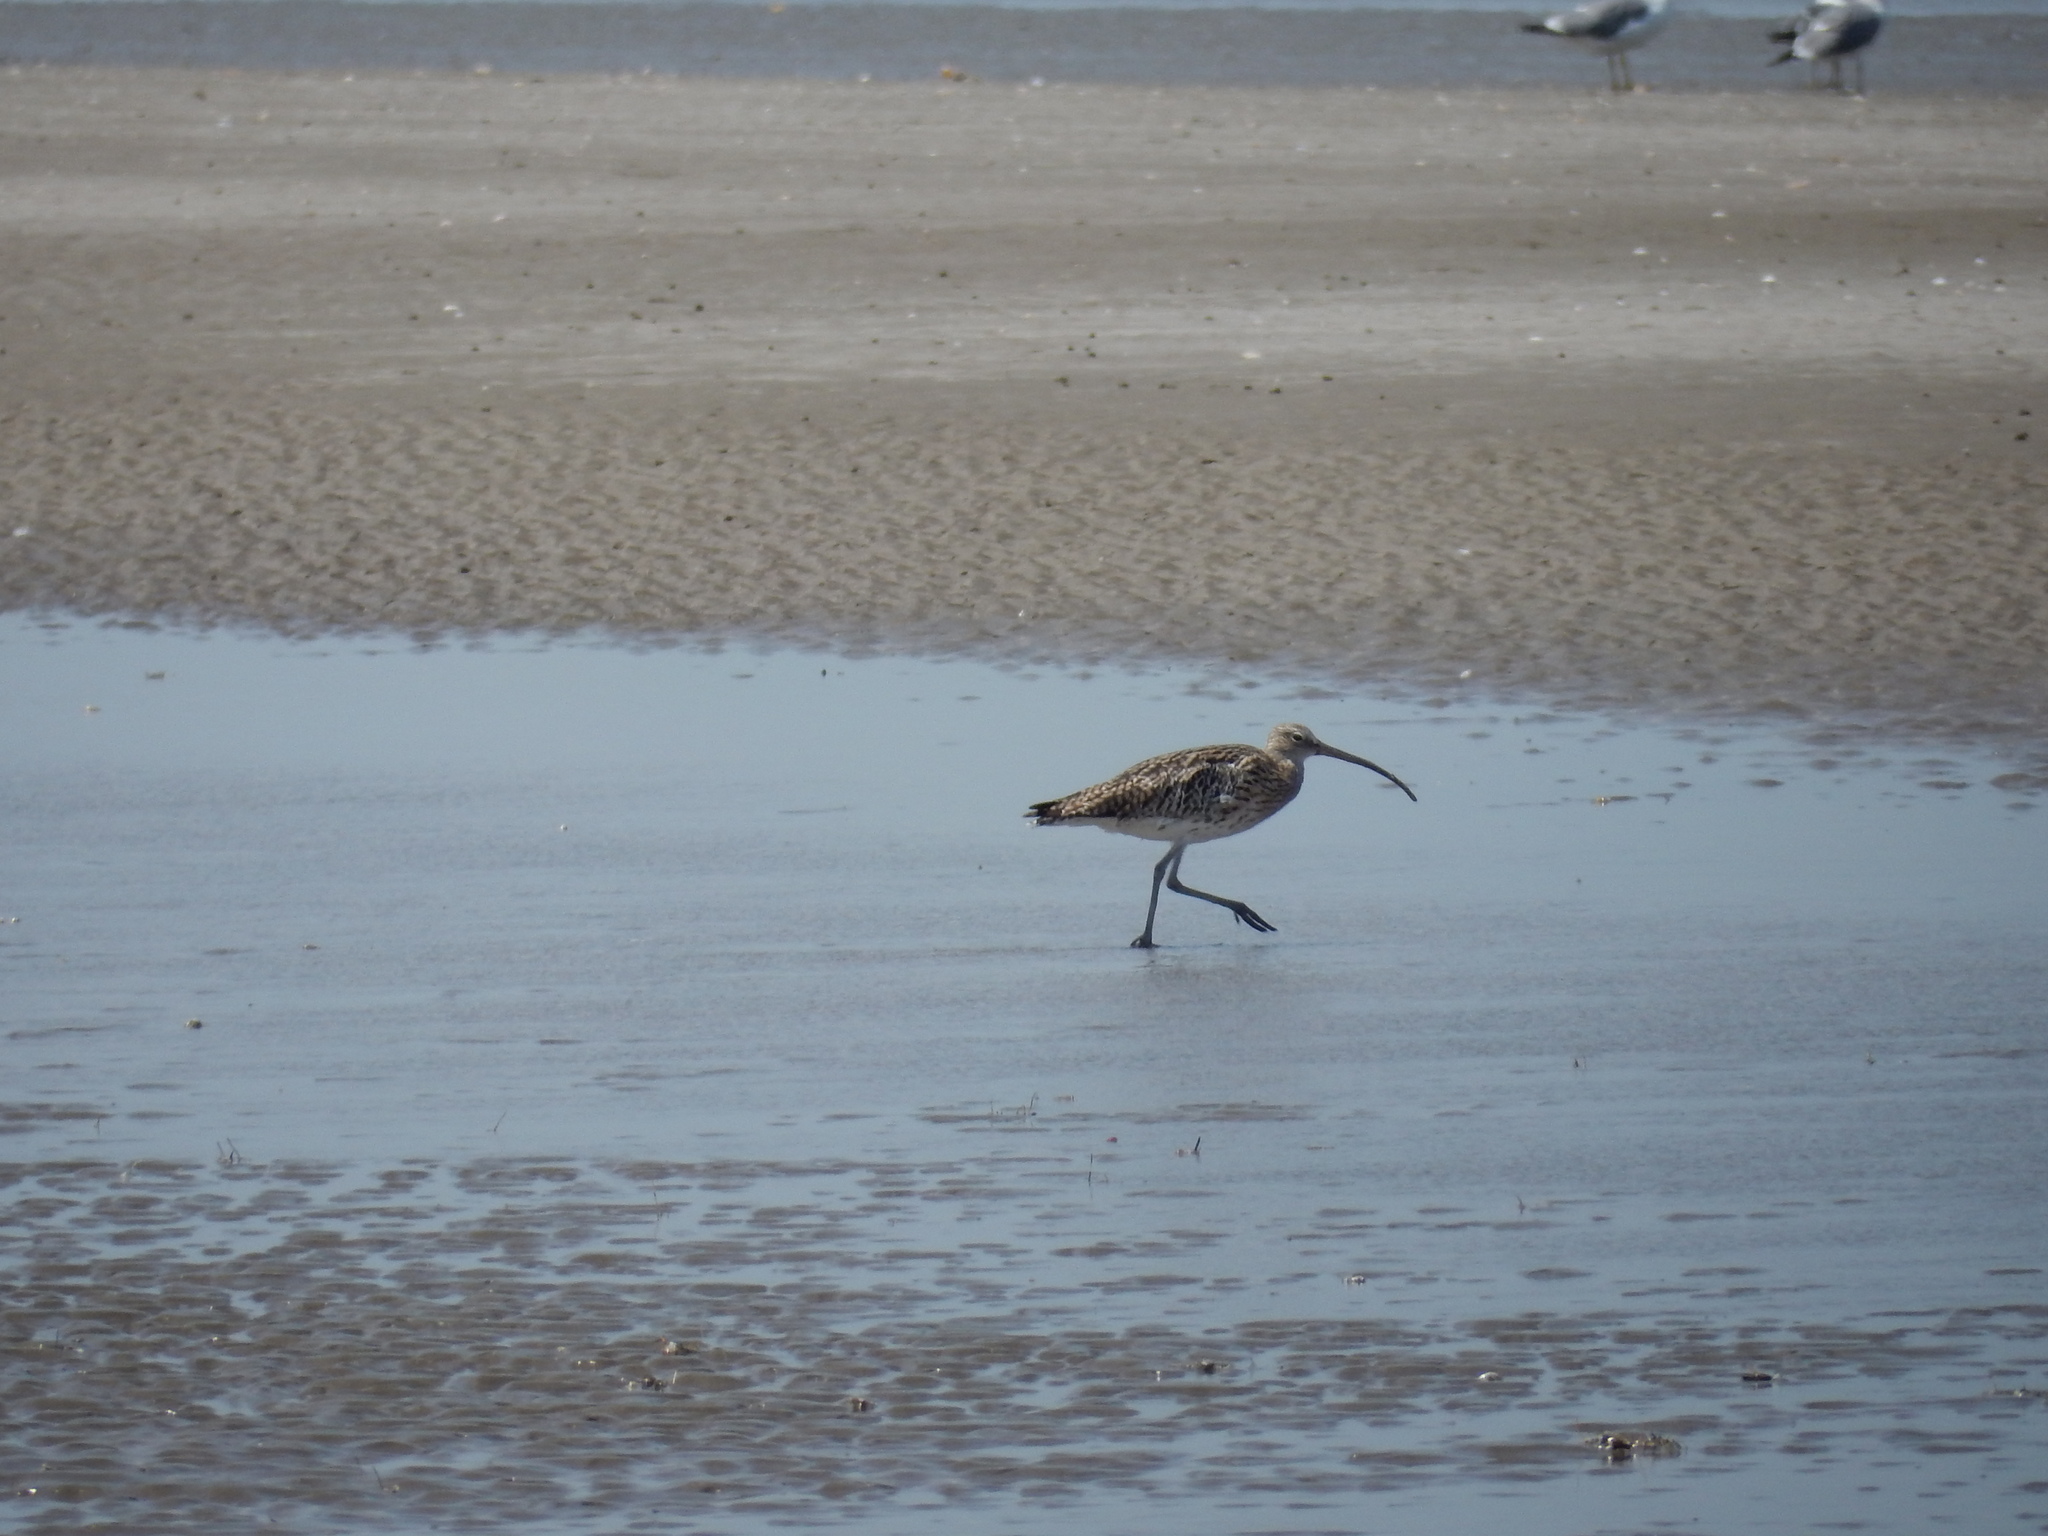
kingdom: Animalia
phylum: Chordata
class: Aves
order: Charadriiformes
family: Scolopacidae
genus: Numenius
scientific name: Numenius arquata
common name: Eurasian curlew
